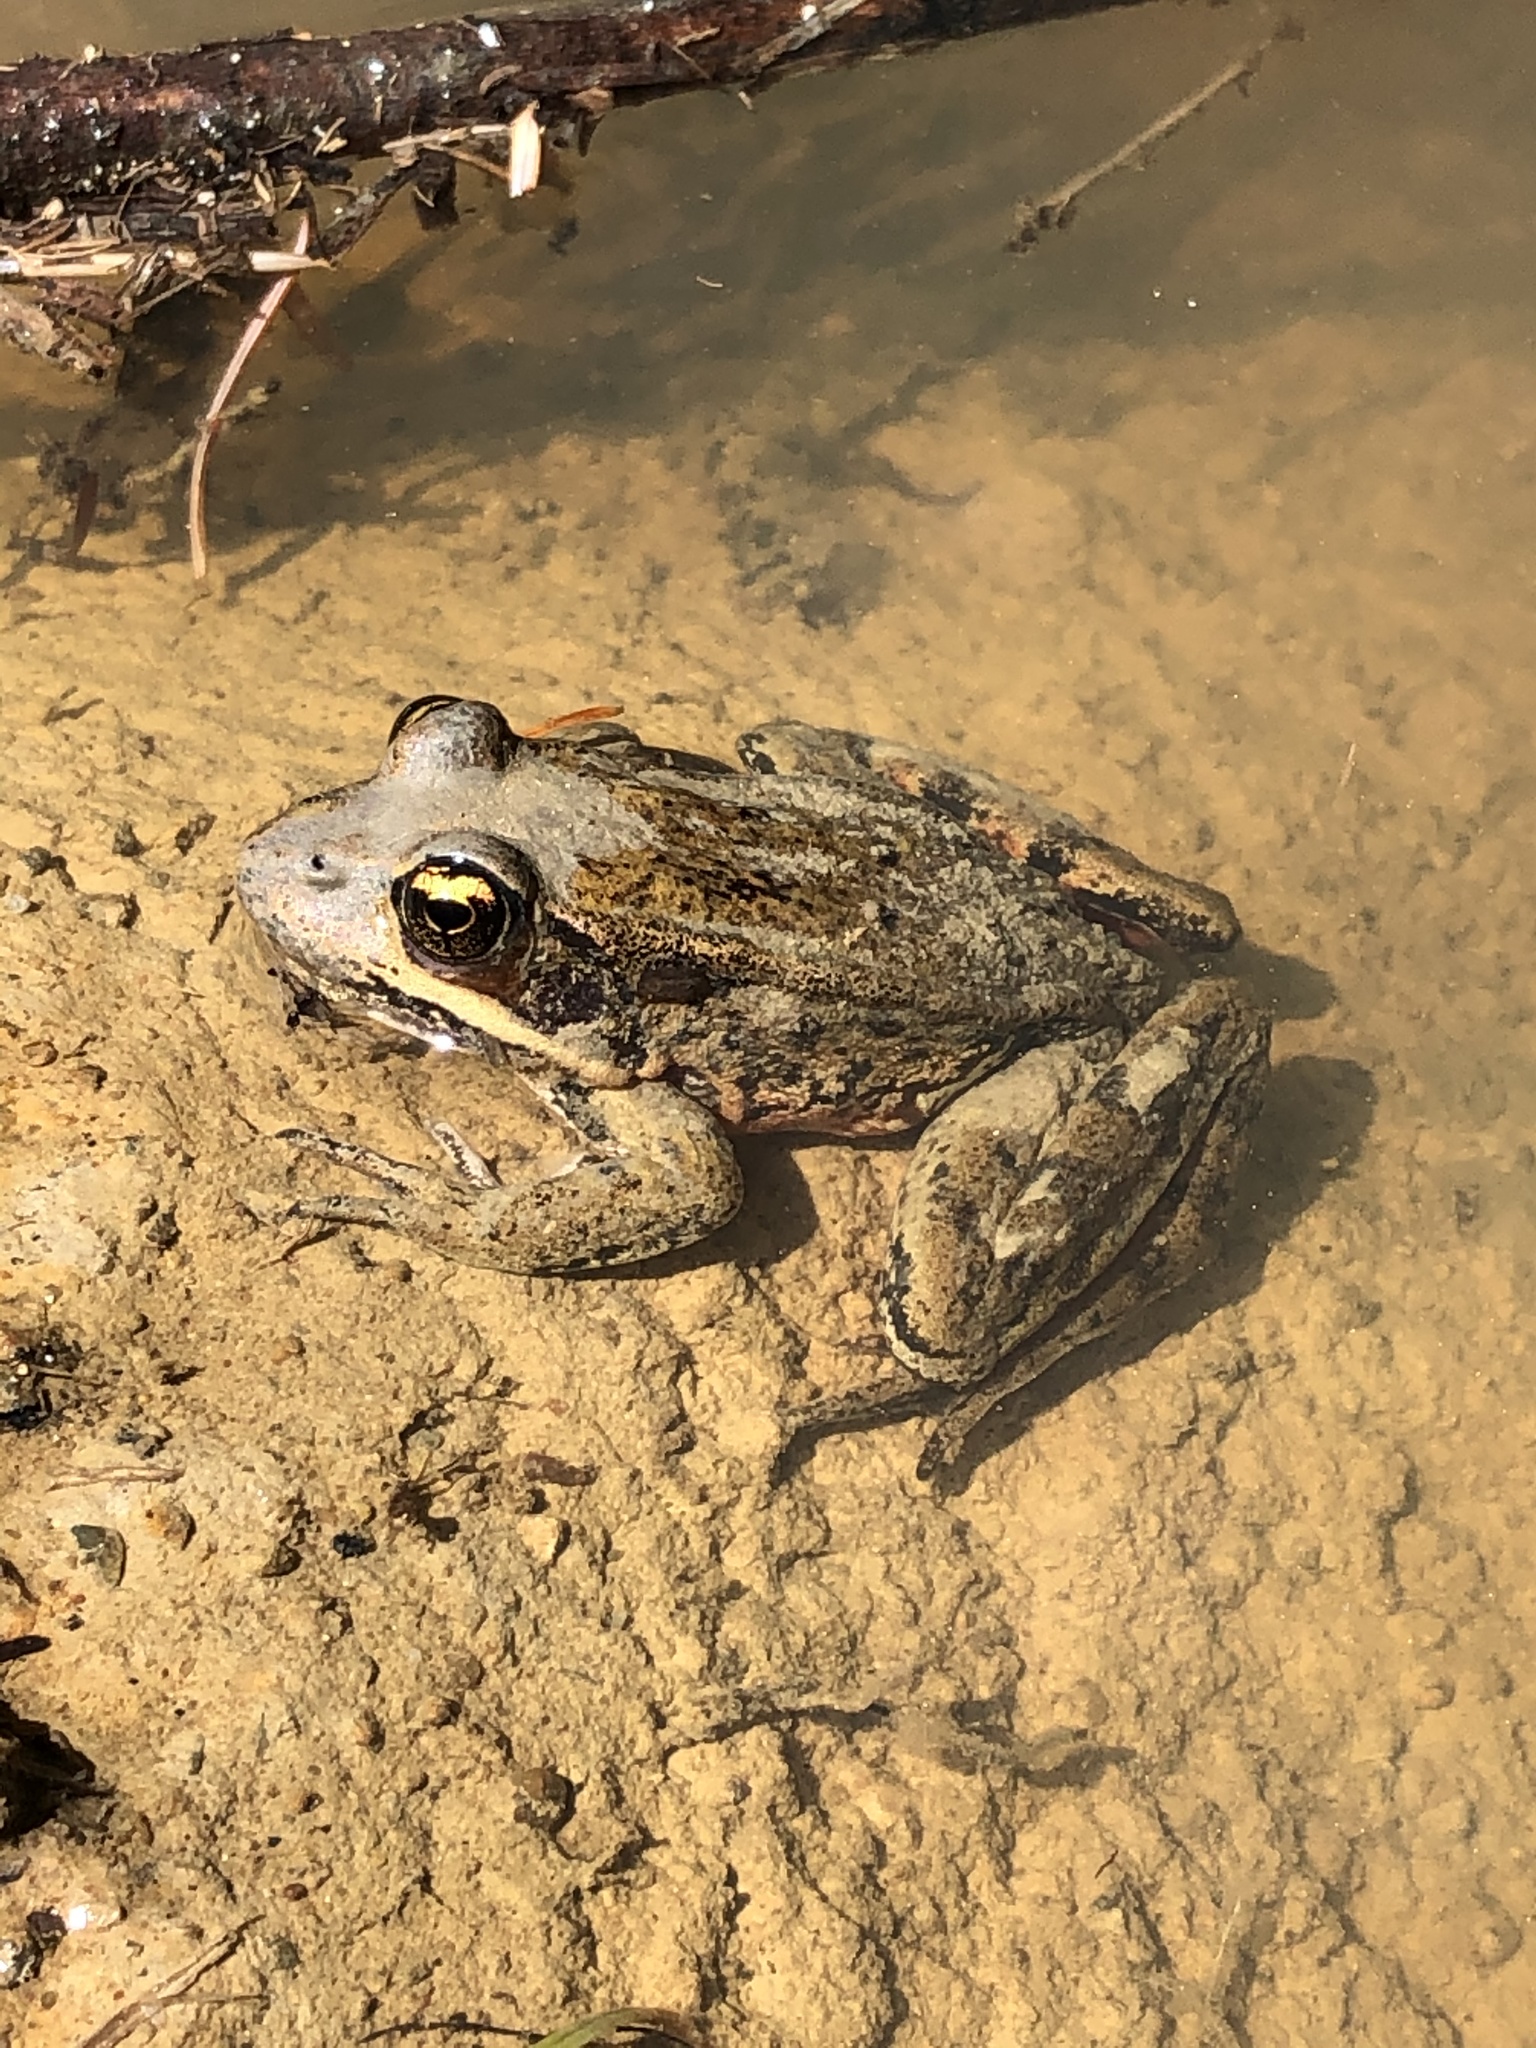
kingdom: Animalia
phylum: Chordata
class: Amphibia
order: Anura
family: Ranidae
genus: Rana
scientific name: Rana aurora
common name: Red-legged frog
